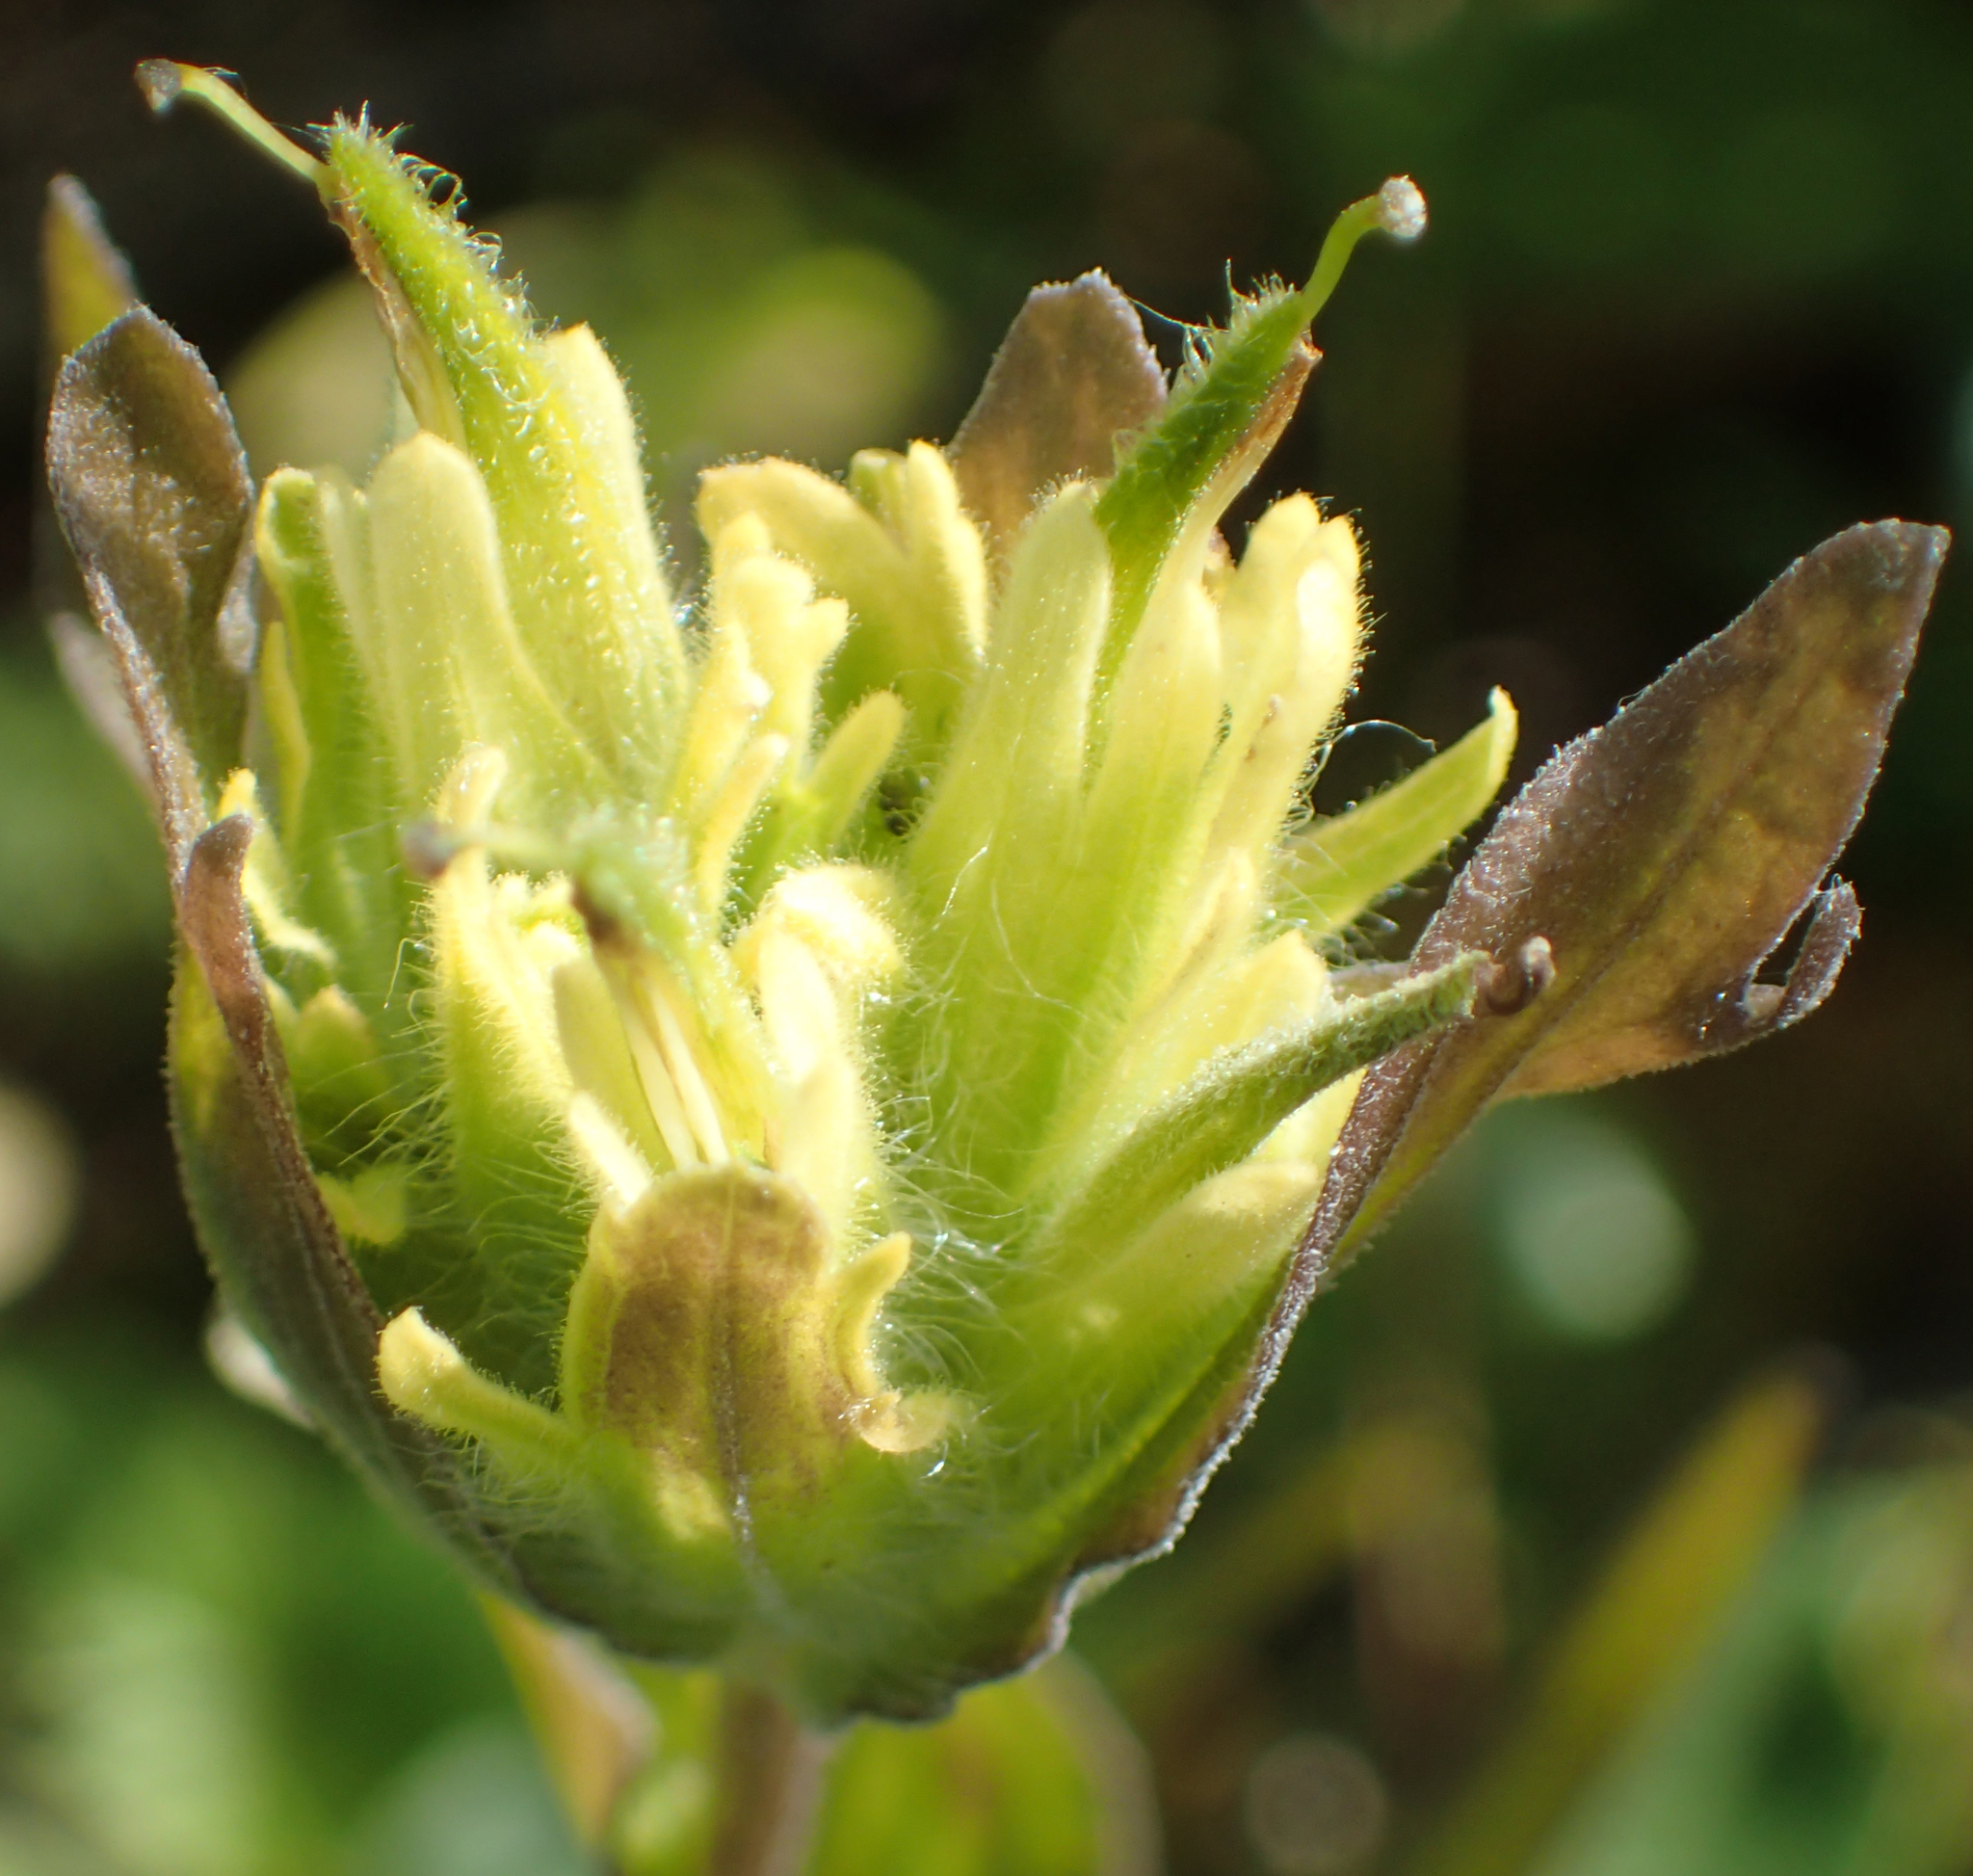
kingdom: Plantae
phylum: Tracheophyta
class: Magnoliopsida
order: Lamiales
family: Orobanchaceae
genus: Castilleja
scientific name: Castilleja unalaschcensis
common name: Unalaska paintbrush
